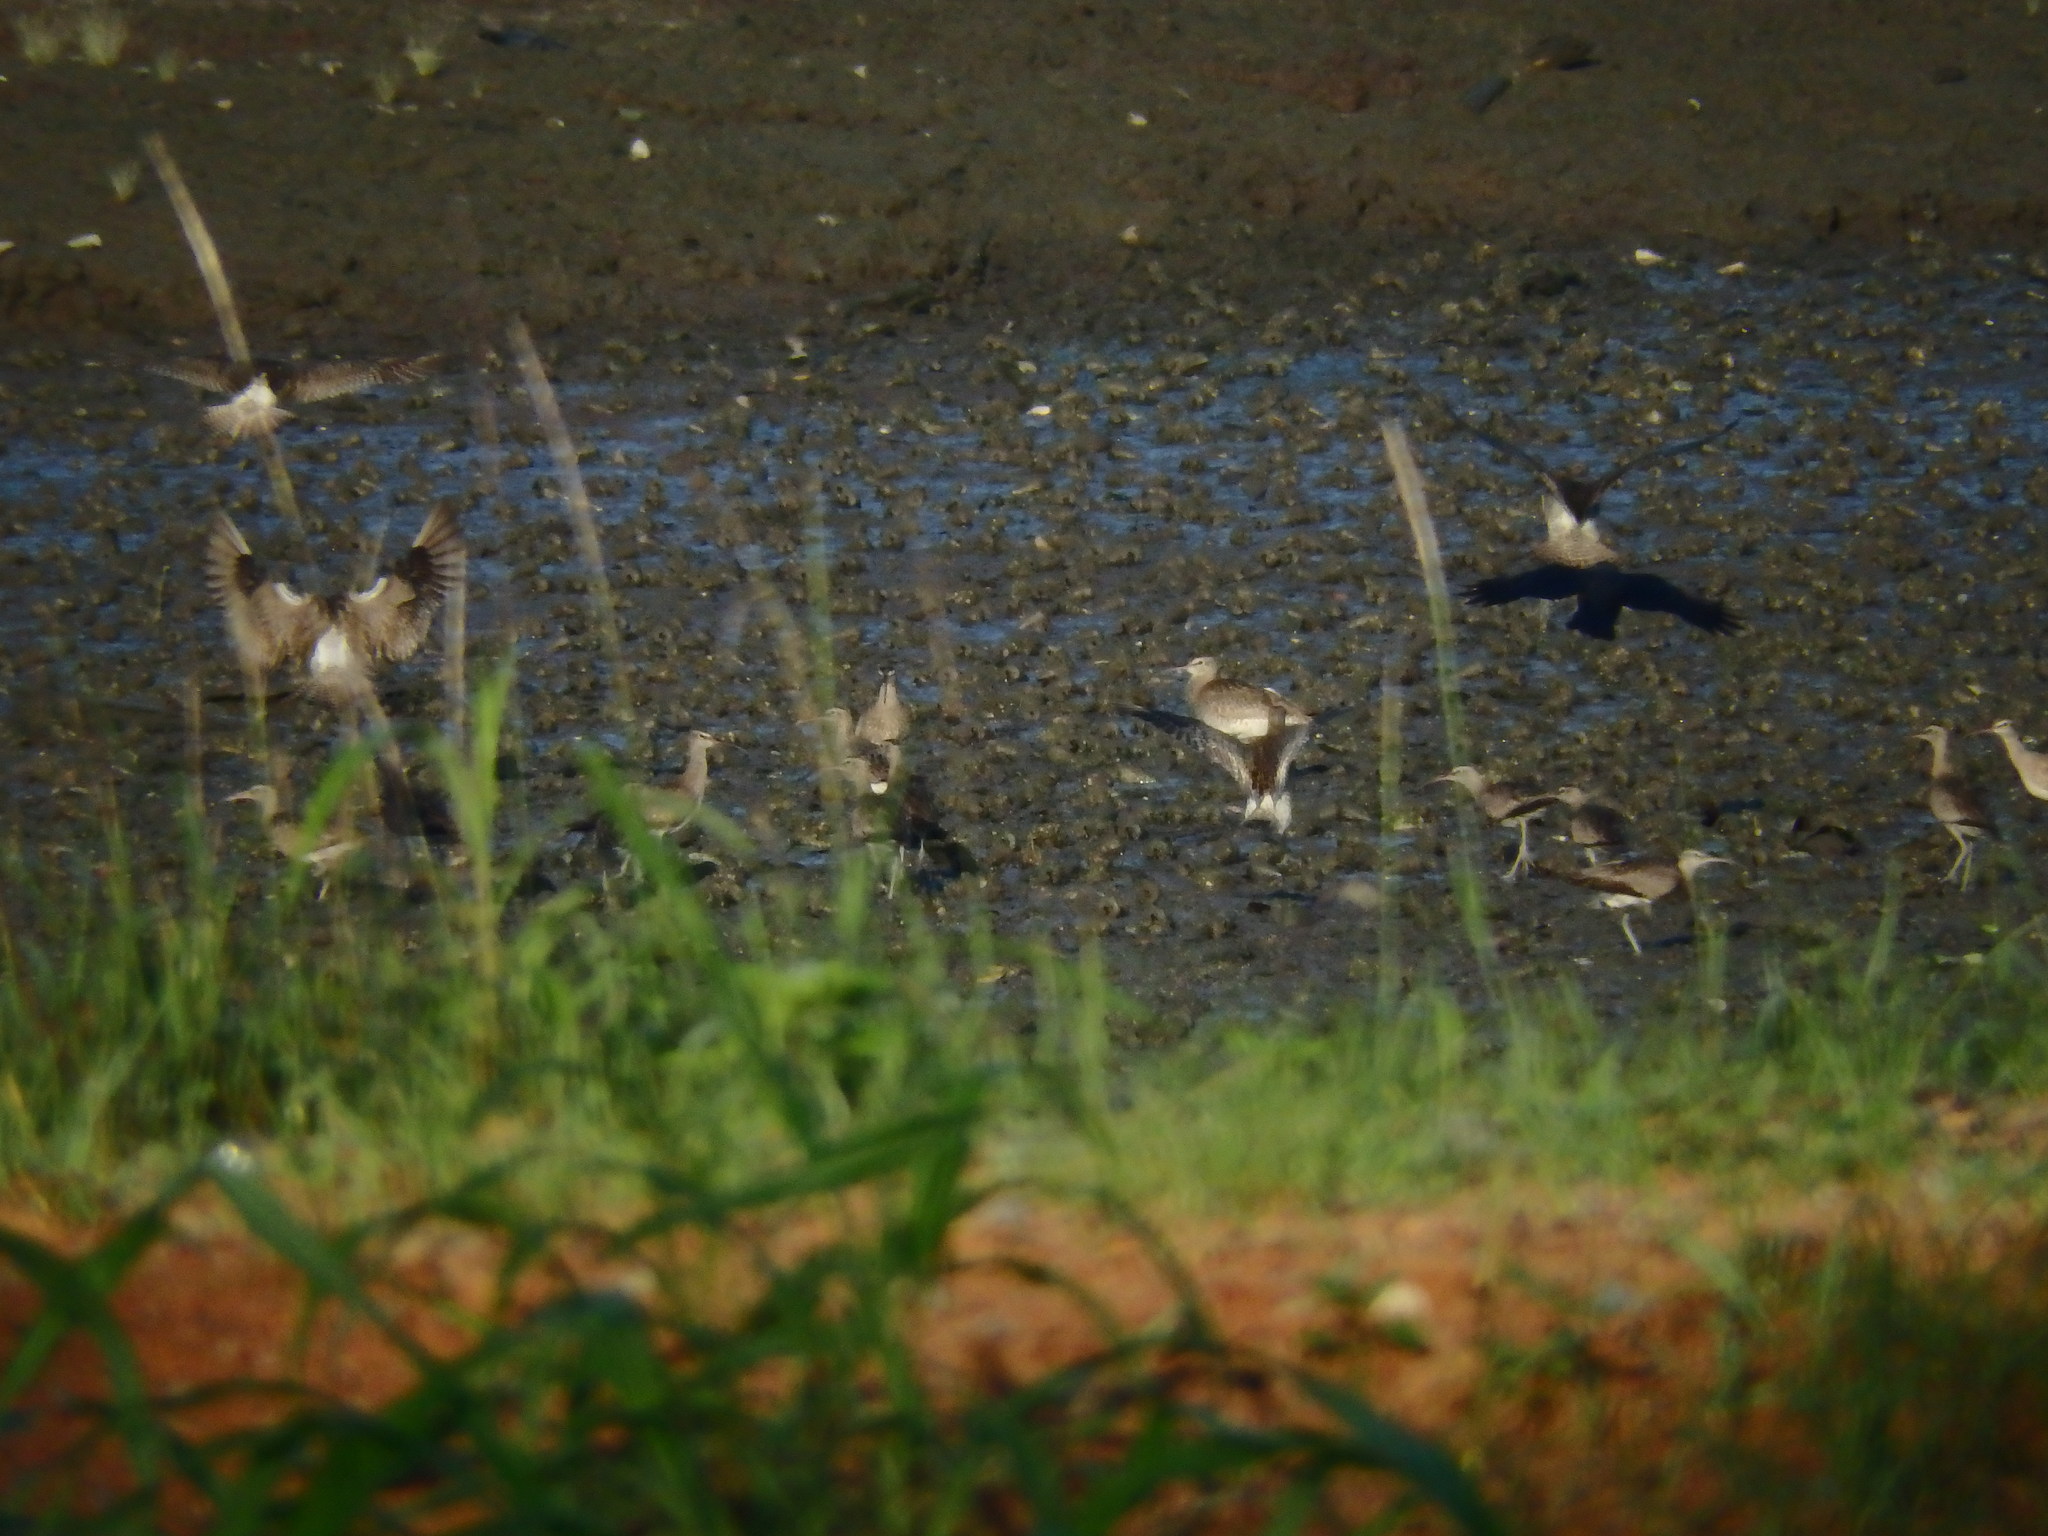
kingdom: Animalia
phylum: Chordata
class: Aves
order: Charadriiformes
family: Scolopacidae
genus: Numenius
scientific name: Numenius phaeopus
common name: Whimbrel
